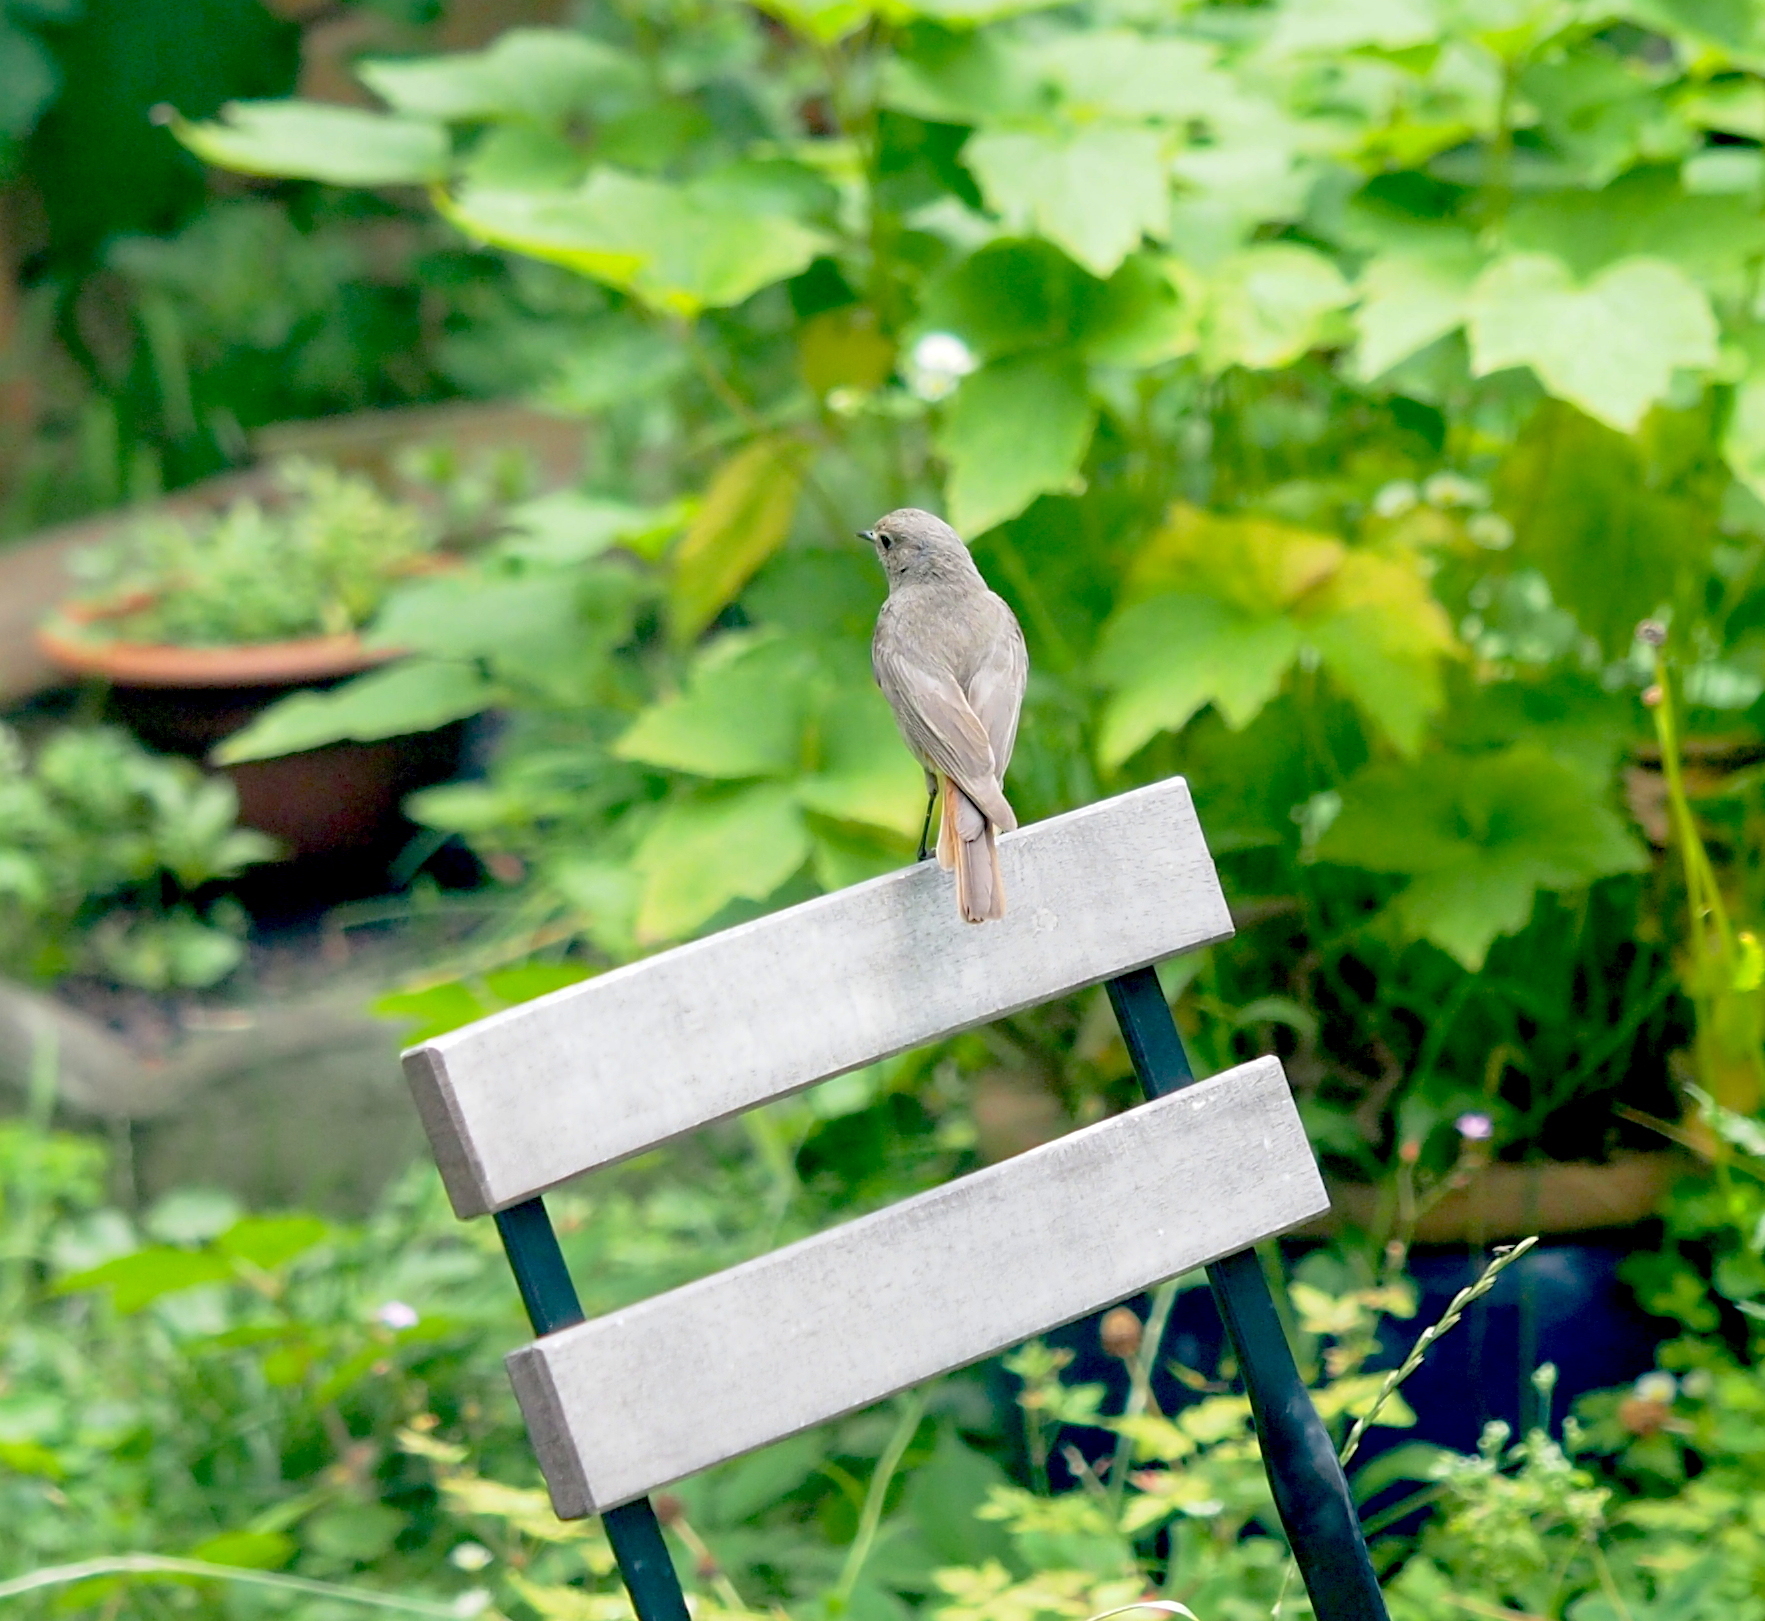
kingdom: Animalia
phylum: Chordata
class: Aves
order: Passeriformes
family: Muscicapidae
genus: Phoenicurus
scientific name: Phoenicurus ochruros
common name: Black redstart
